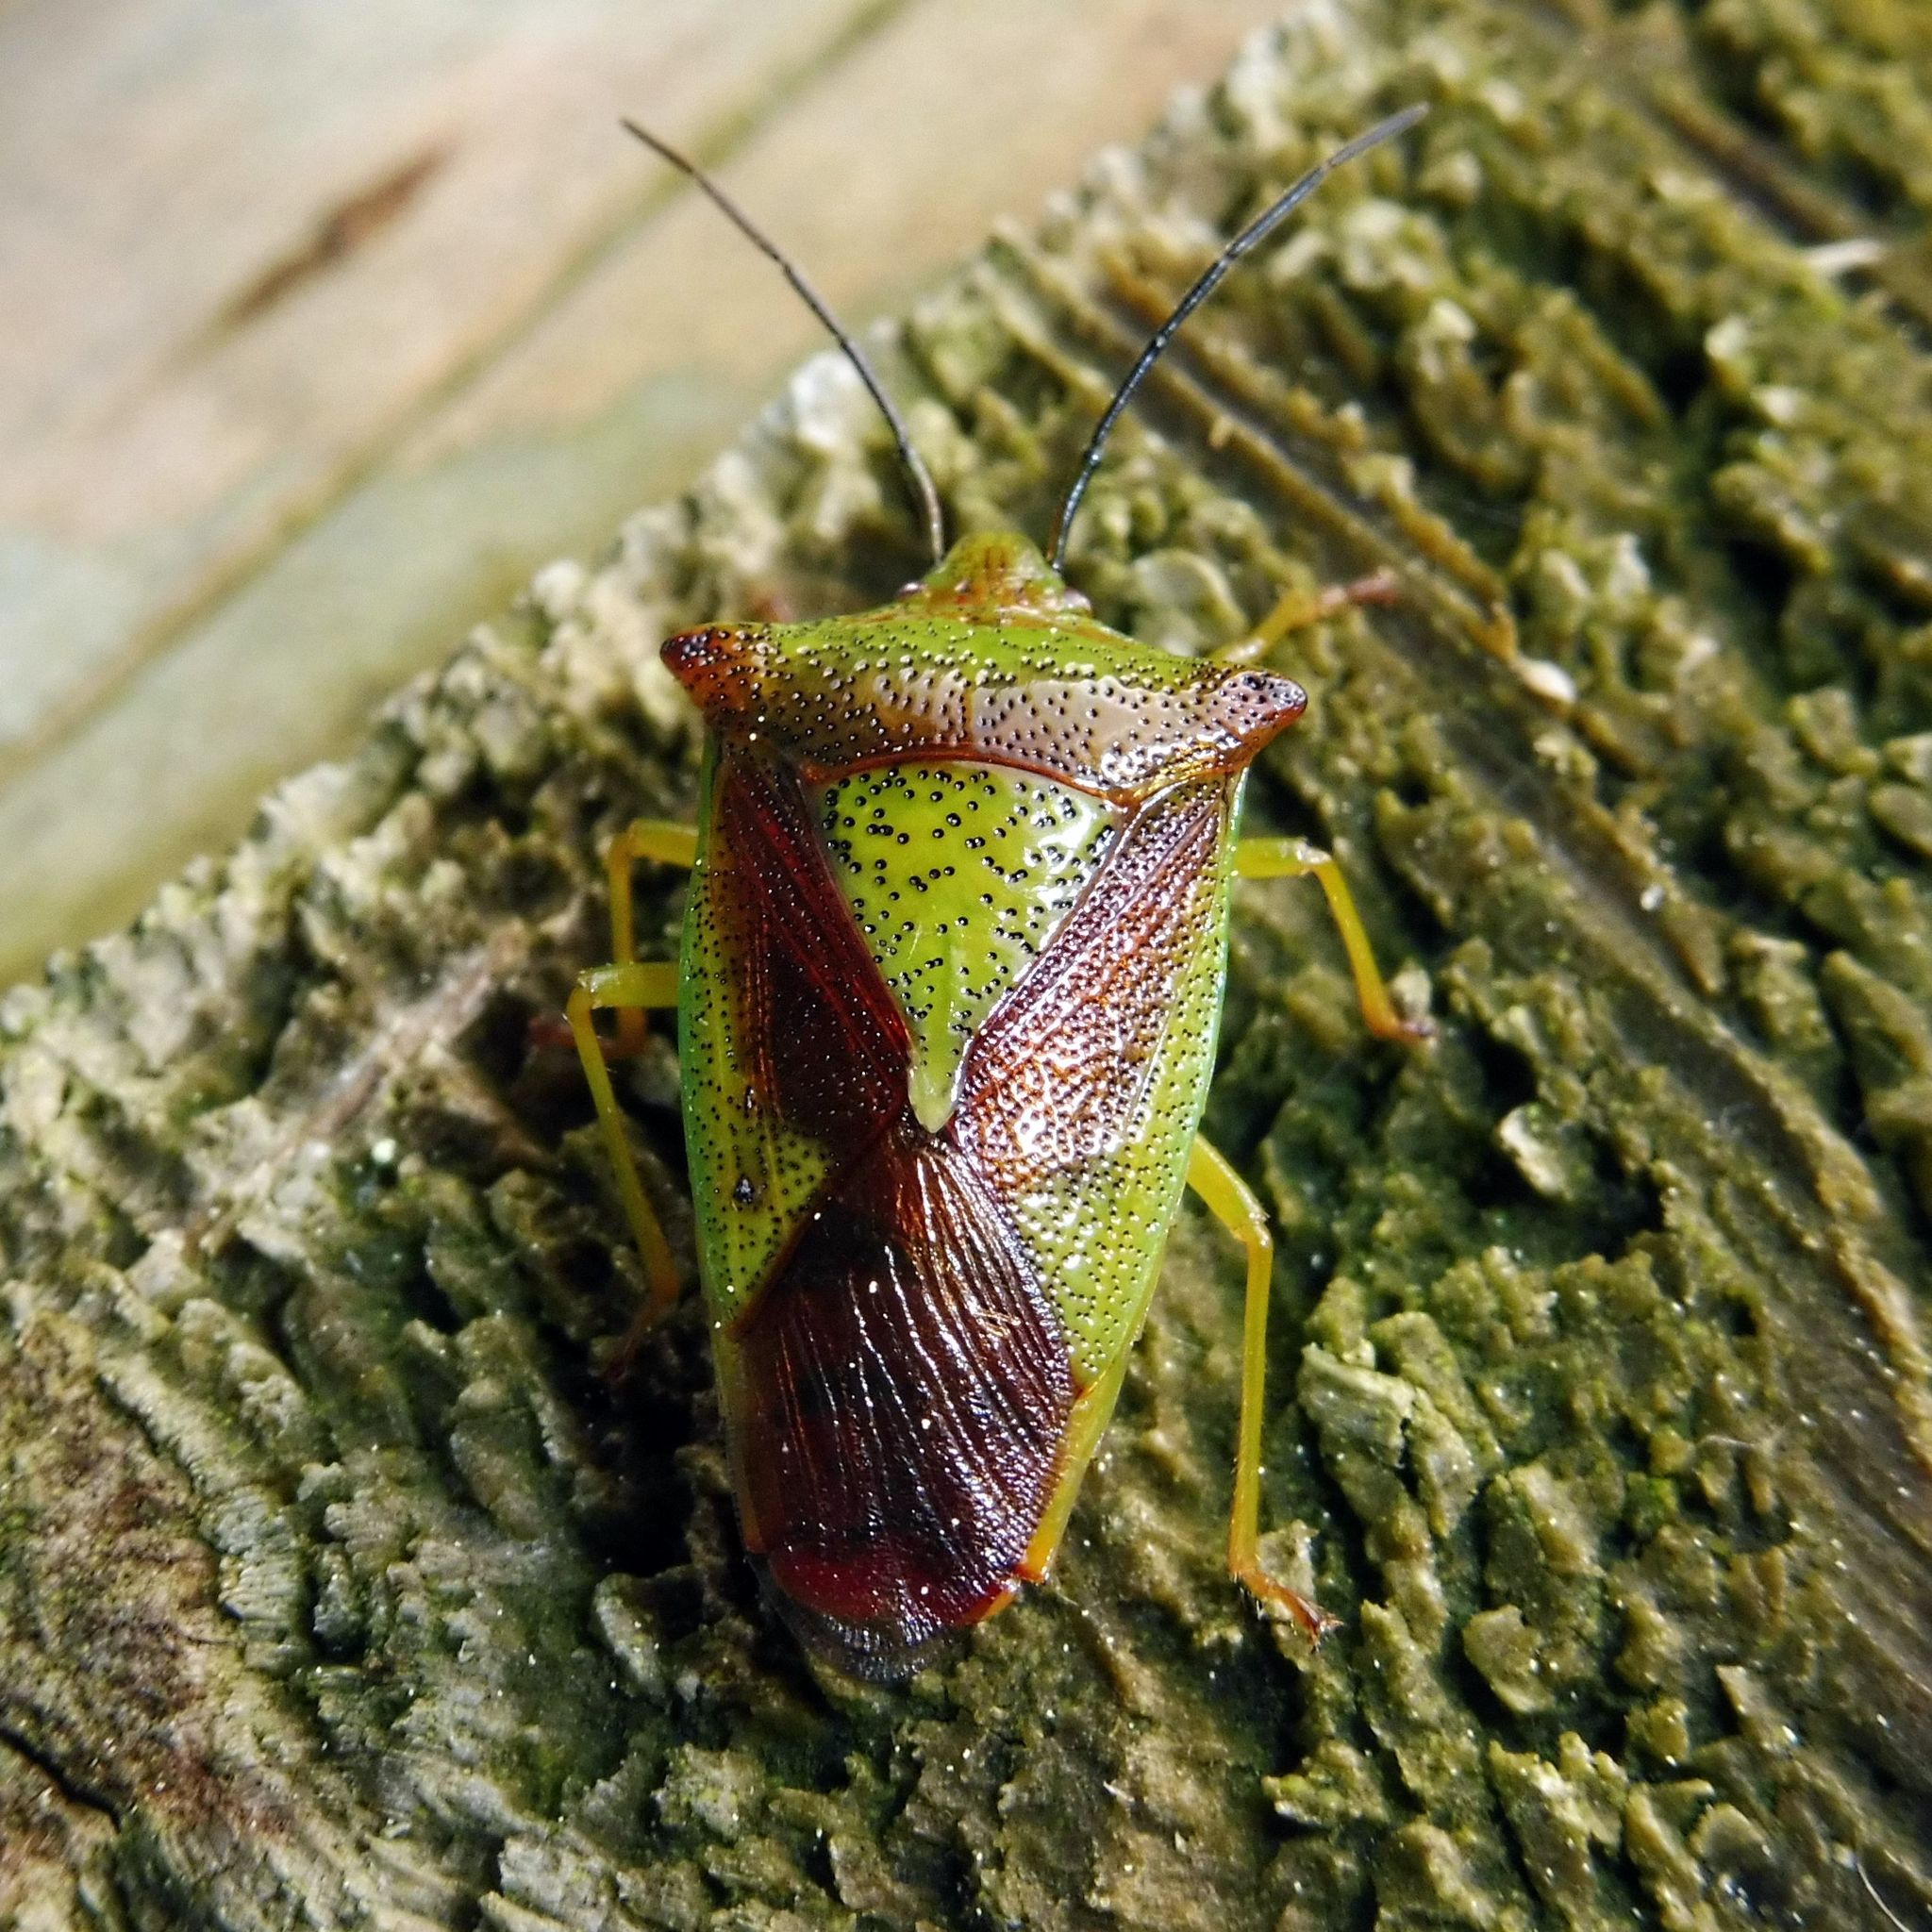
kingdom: Animalia
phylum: Arthropoda
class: Insecta
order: Hemiptera
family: Acanthosomatidae
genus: Acanthosoma
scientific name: Acanthosoma haemorrhoidale
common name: Hawthorn shieldbug
